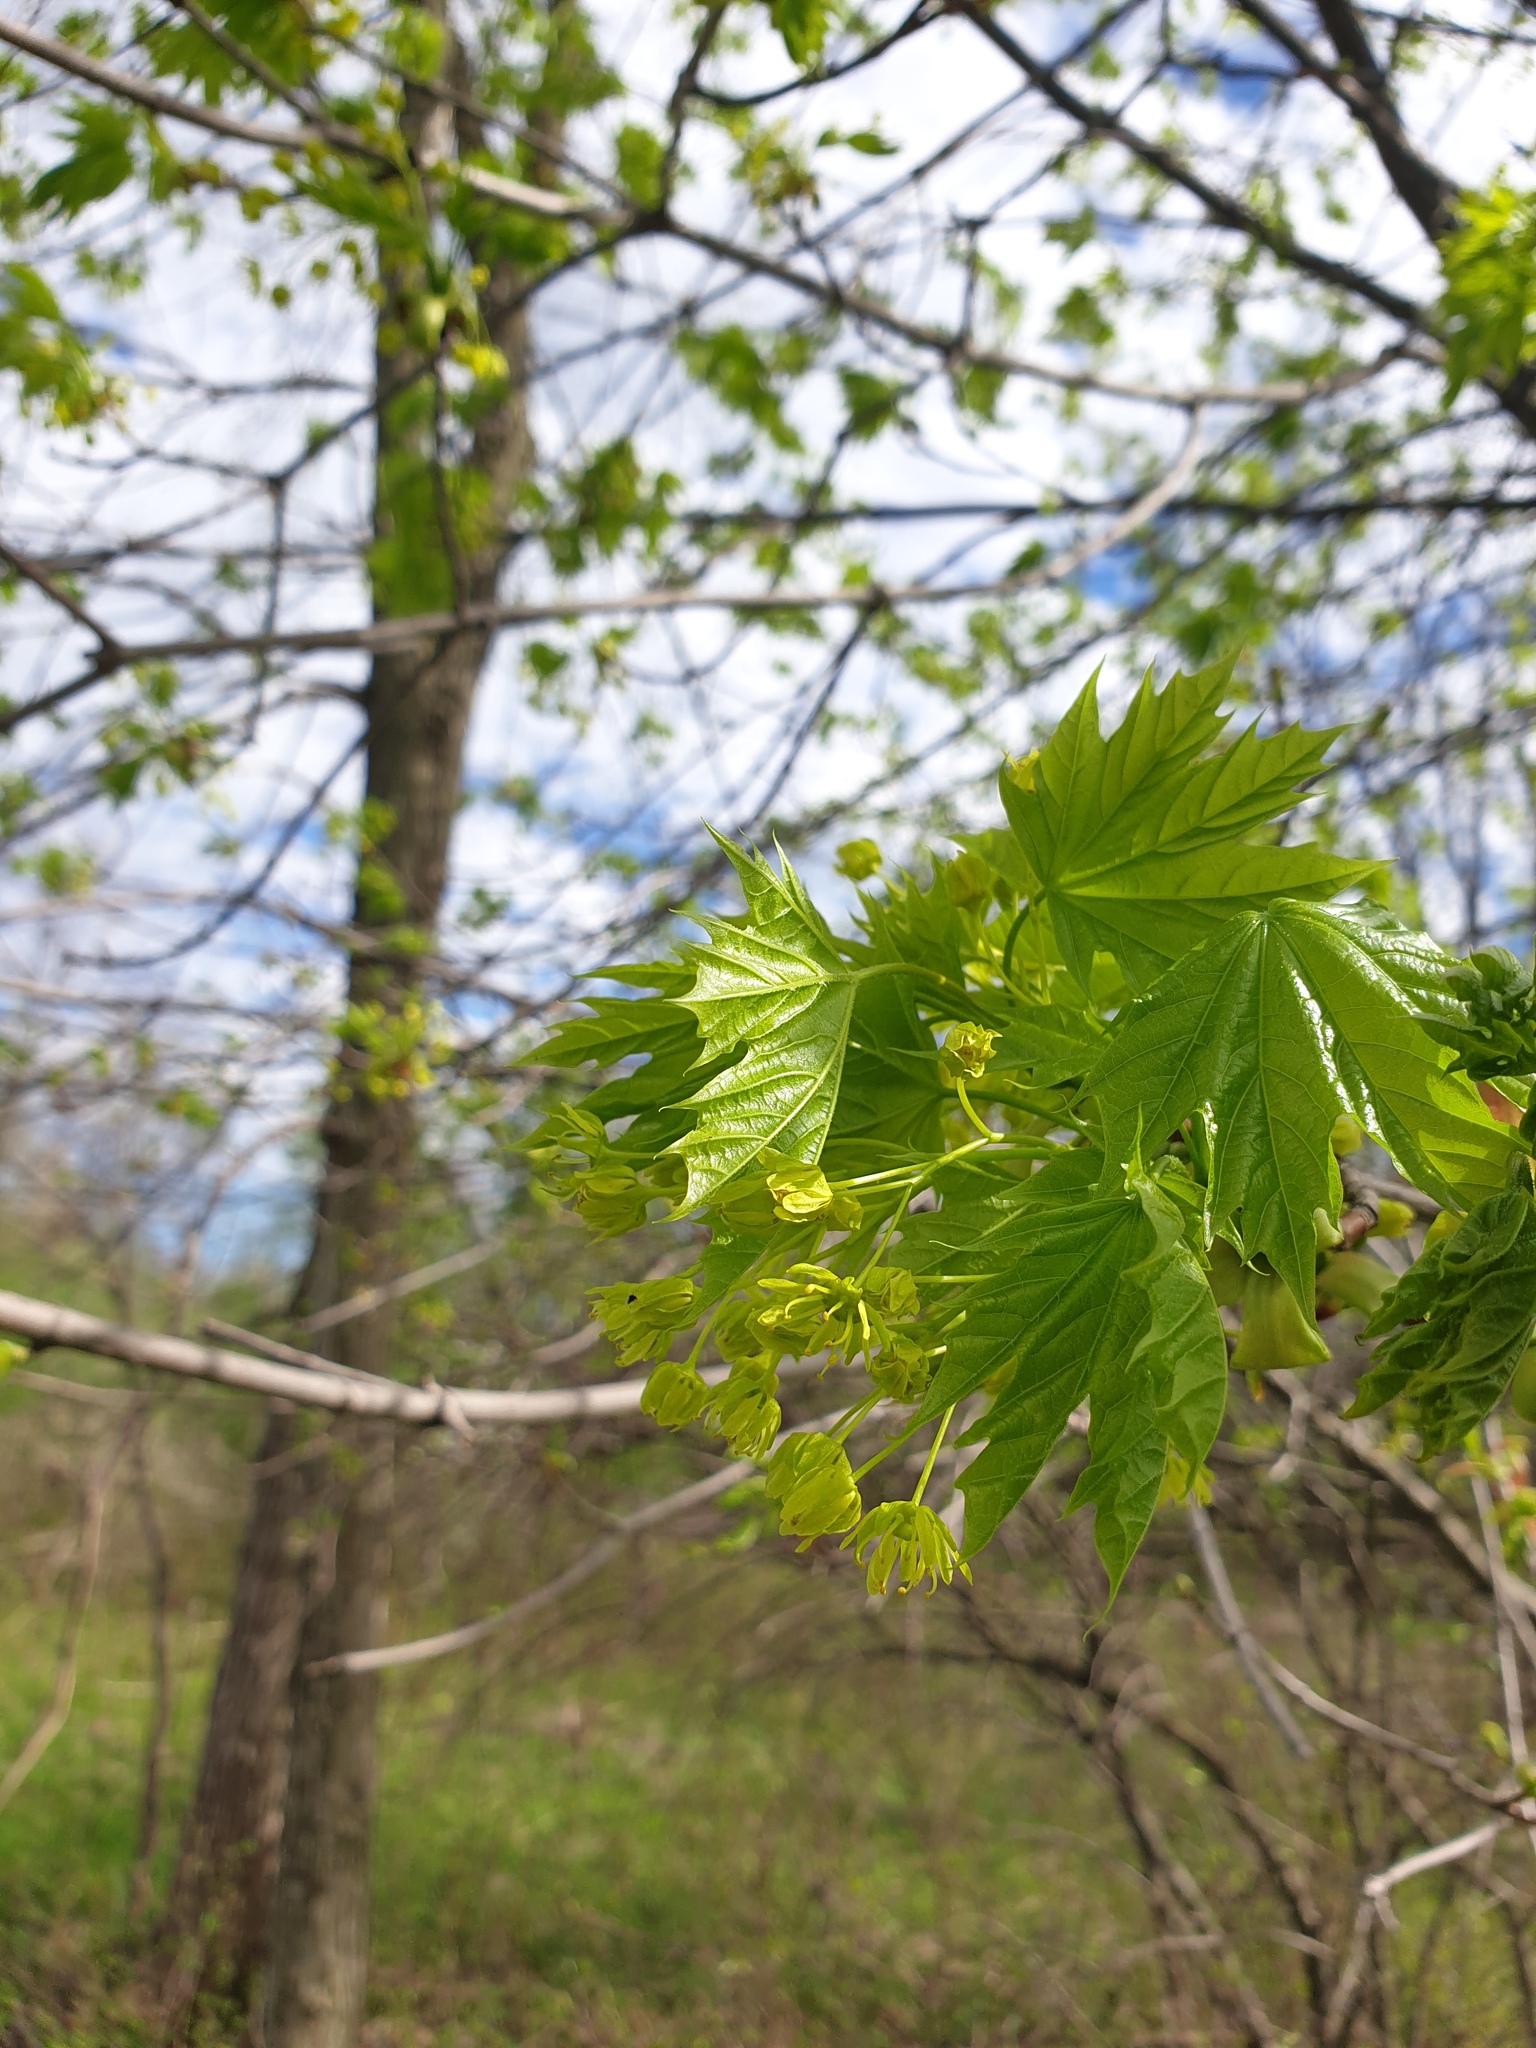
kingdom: Plantae
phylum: Tracheophyta
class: Magnoliopsida
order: Sapindales
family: Sapindaceae
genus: Acer
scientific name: Acer platanoides
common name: Norway maple
